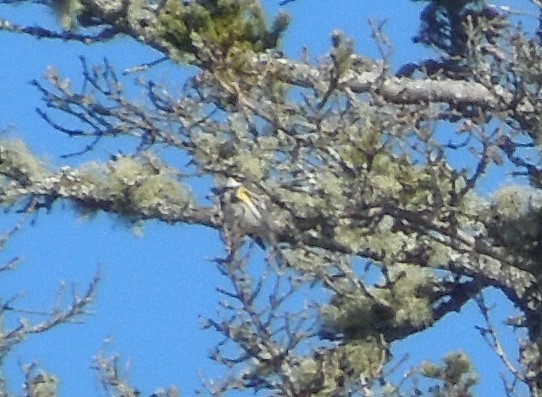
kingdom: Animalia
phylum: Chordata
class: Aves
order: Passeriformes
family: Parulidae
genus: Setophaga
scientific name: Setophaga coronata
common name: Myrtle warbler
